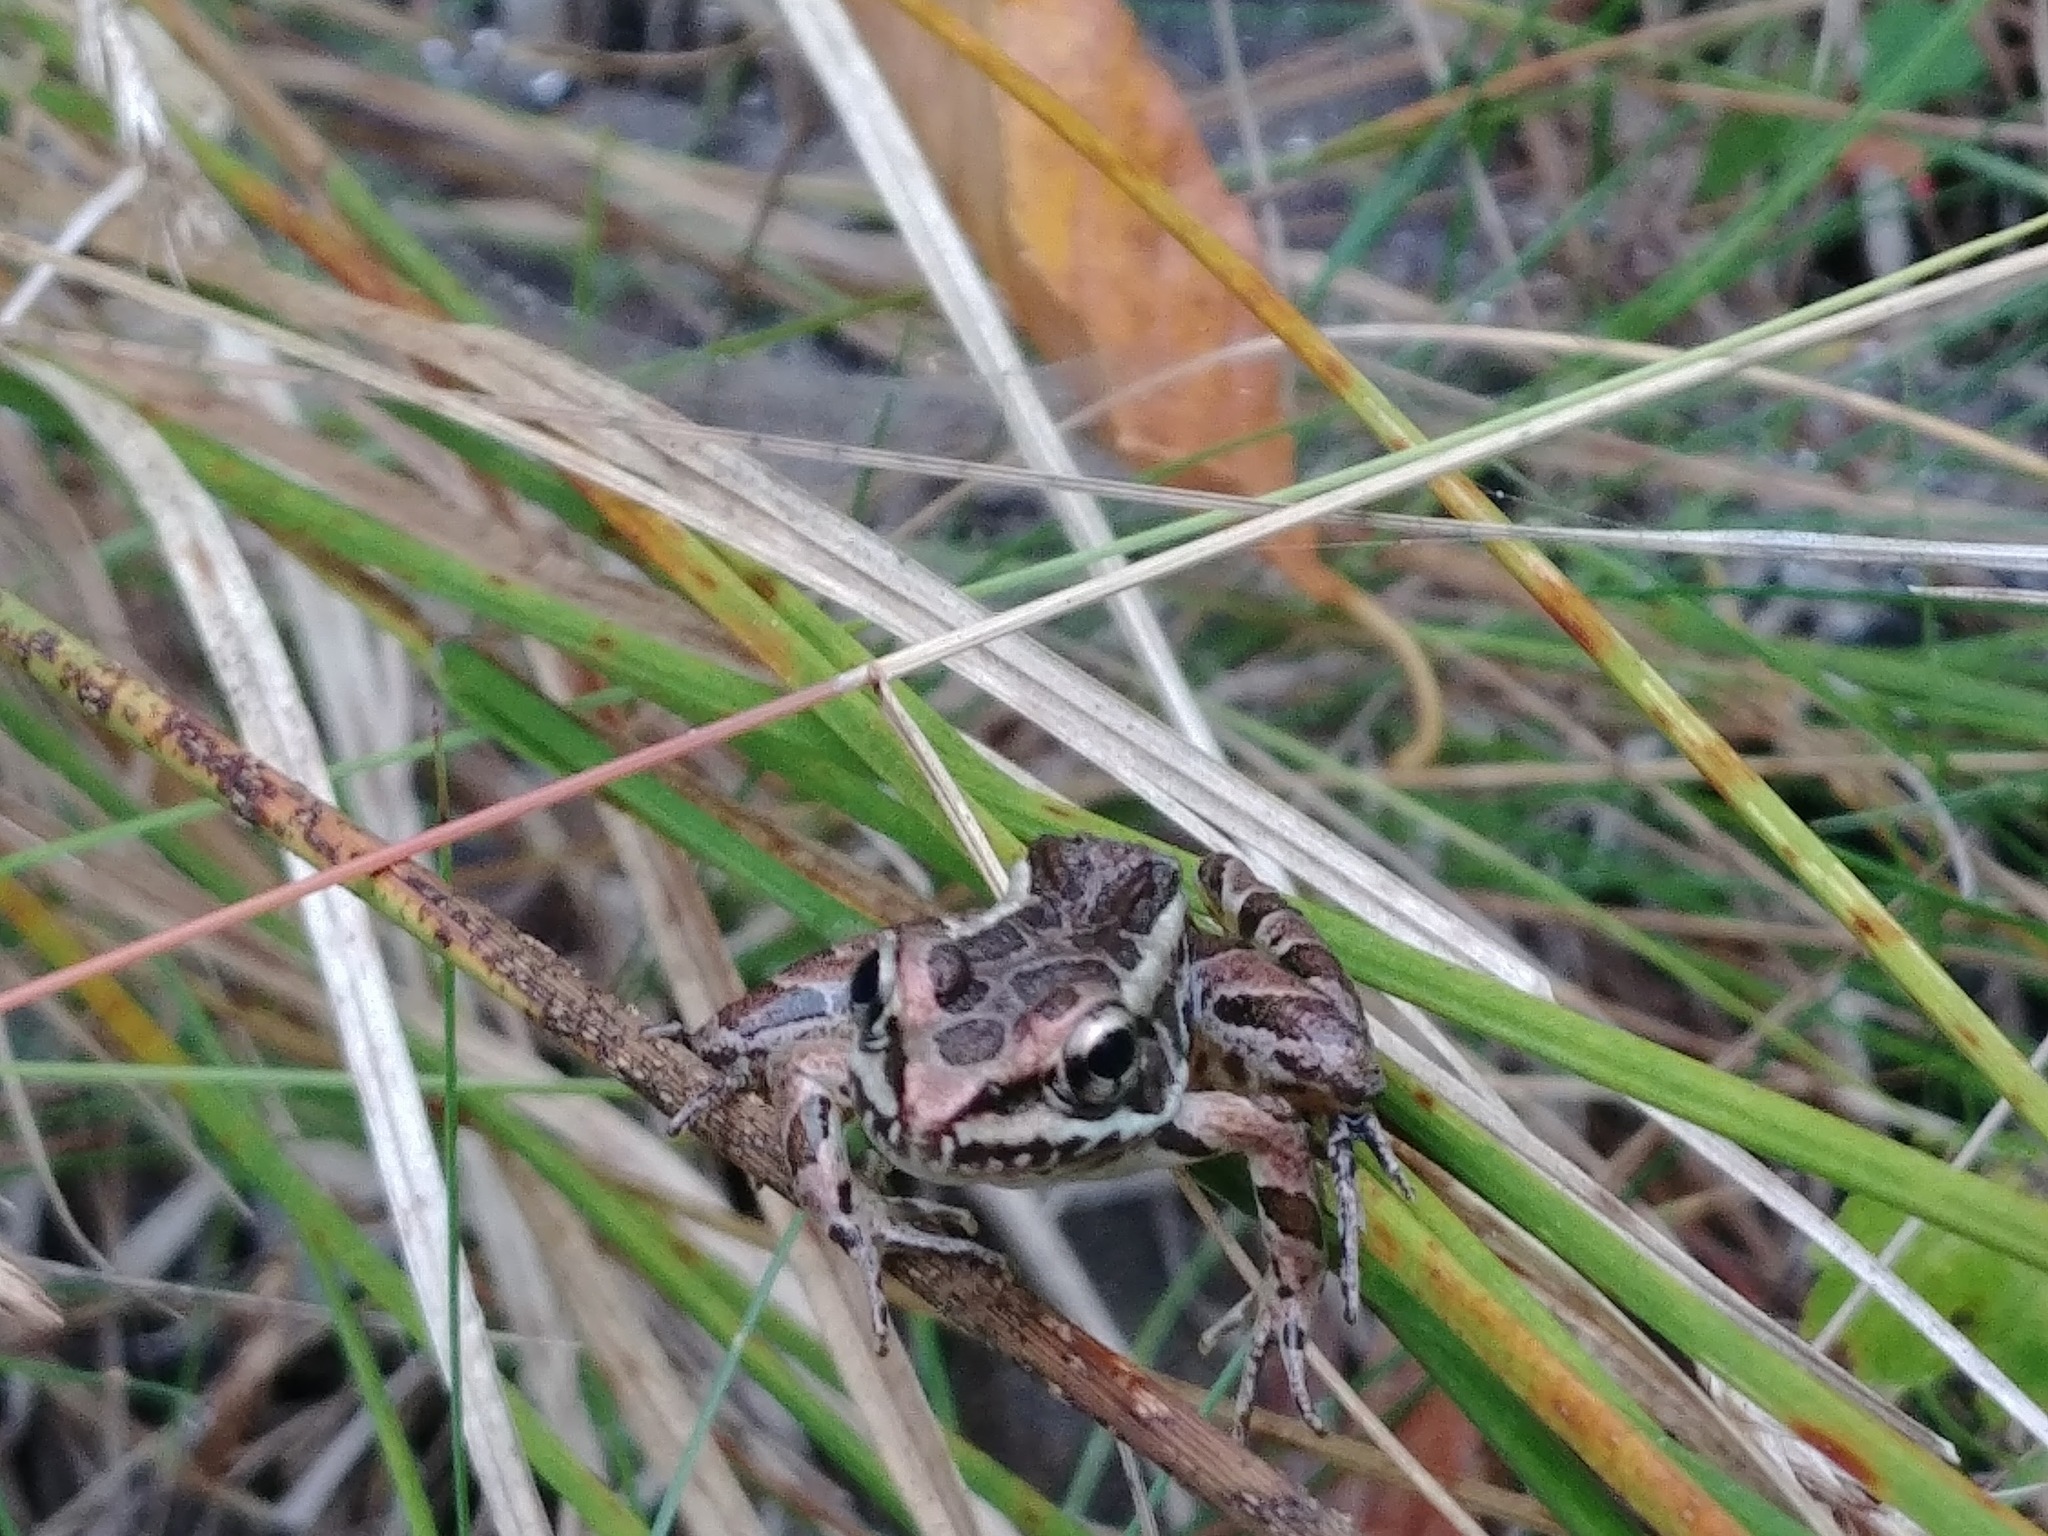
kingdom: Animalia
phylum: Chordata
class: Amphibia
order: Anura
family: Ranidae
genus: Lithobates
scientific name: Lithobates palustris
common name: Pickerel frog
